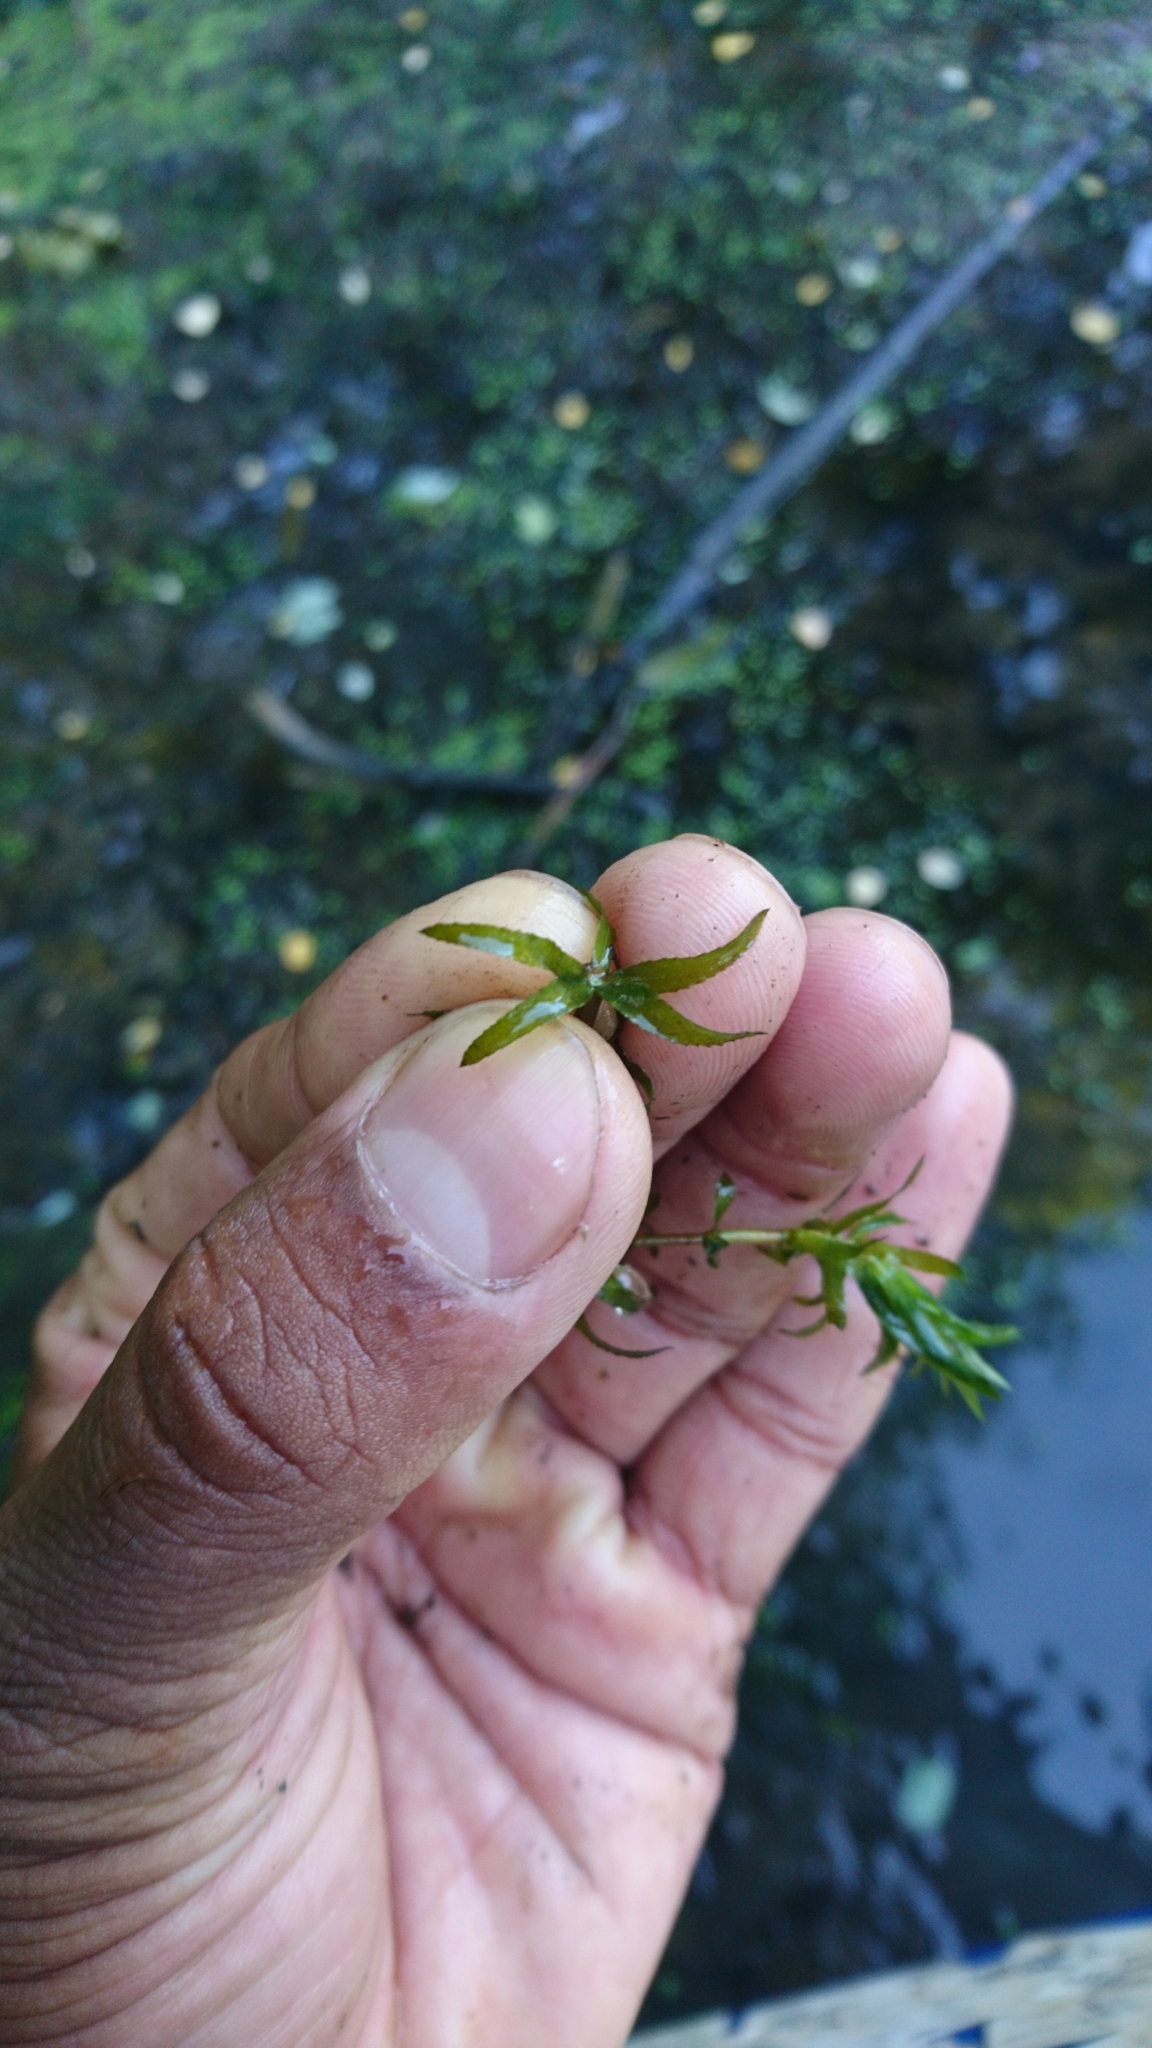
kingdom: Plantae
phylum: Tracheophyta
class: Liliopsida
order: Alismatales
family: Hydrocharitaceae
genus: Hydrilla
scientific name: Hydrilla verticillata
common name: Florida-elodea
